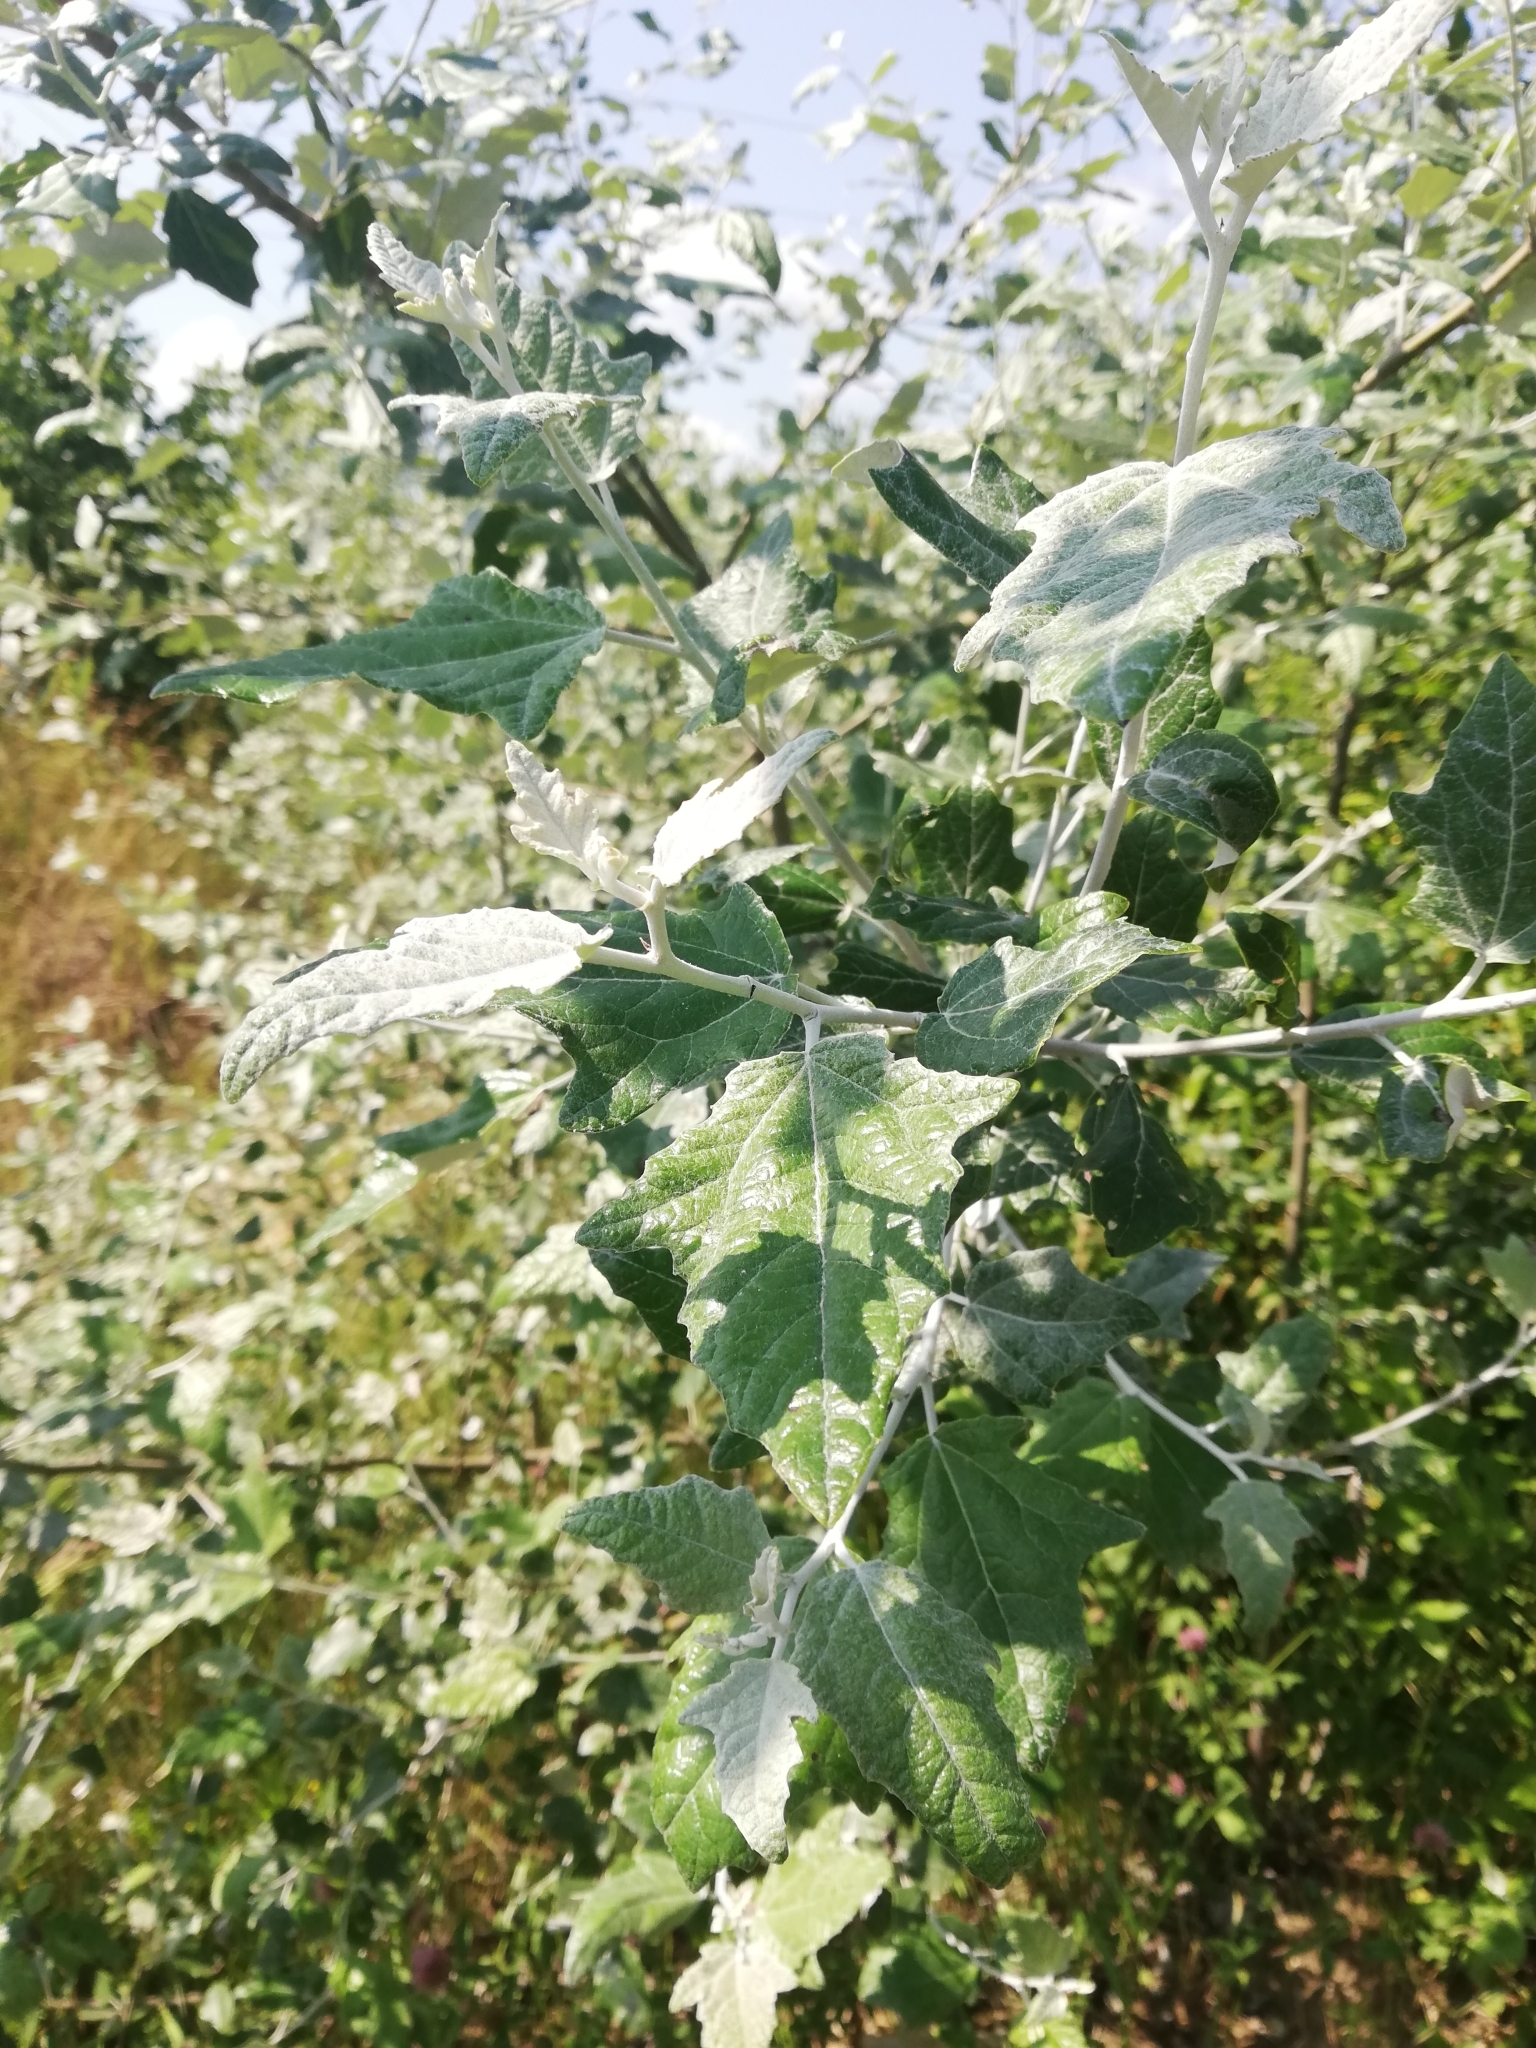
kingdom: Plantae
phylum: Tracheophyta
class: Magnoliopsida
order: Malpighiales
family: Salicaceae
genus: Populus
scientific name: Populus alba
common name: White poplar
